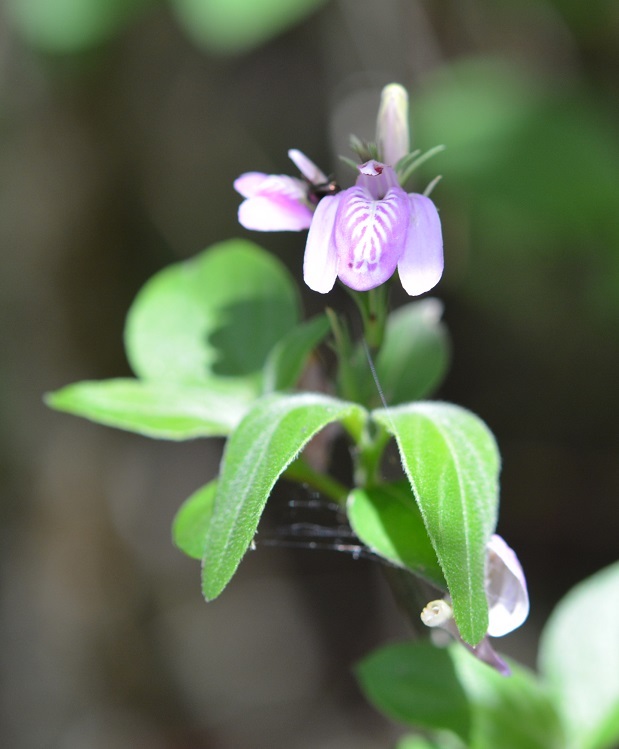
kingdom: Plantae
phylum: Tracheophyta
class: Magnoliopsida
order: Lamiales
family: Acanthaceae
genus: Dianthera
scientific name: Dianthera breviflora
